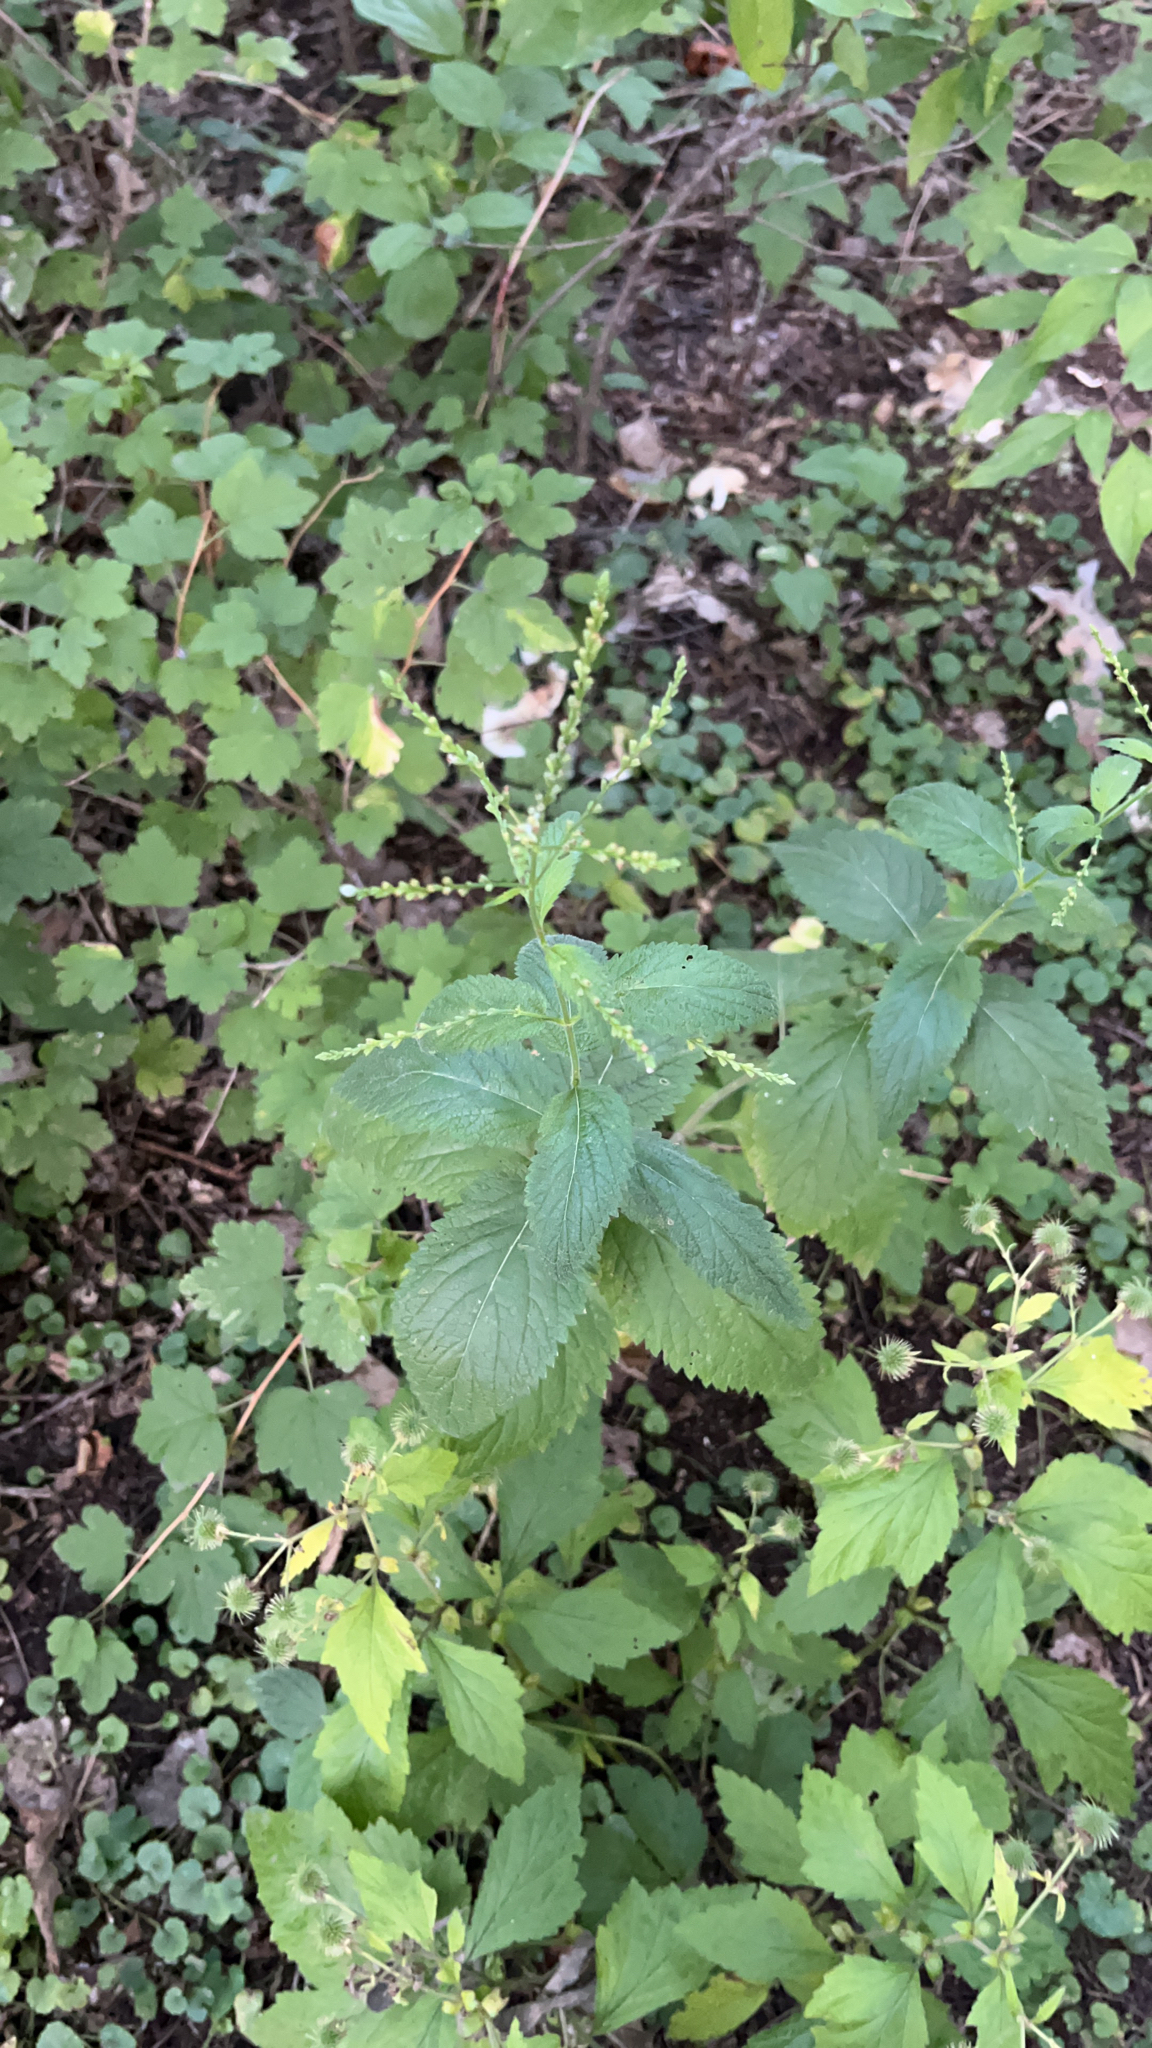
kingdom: Plantae
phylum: Tracheophyta
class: Magnoliopsida
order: Lamiales
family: Verbenaceae
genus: Verbena
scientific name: Verbena urticifolia
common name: Nettle-leaved vervain
